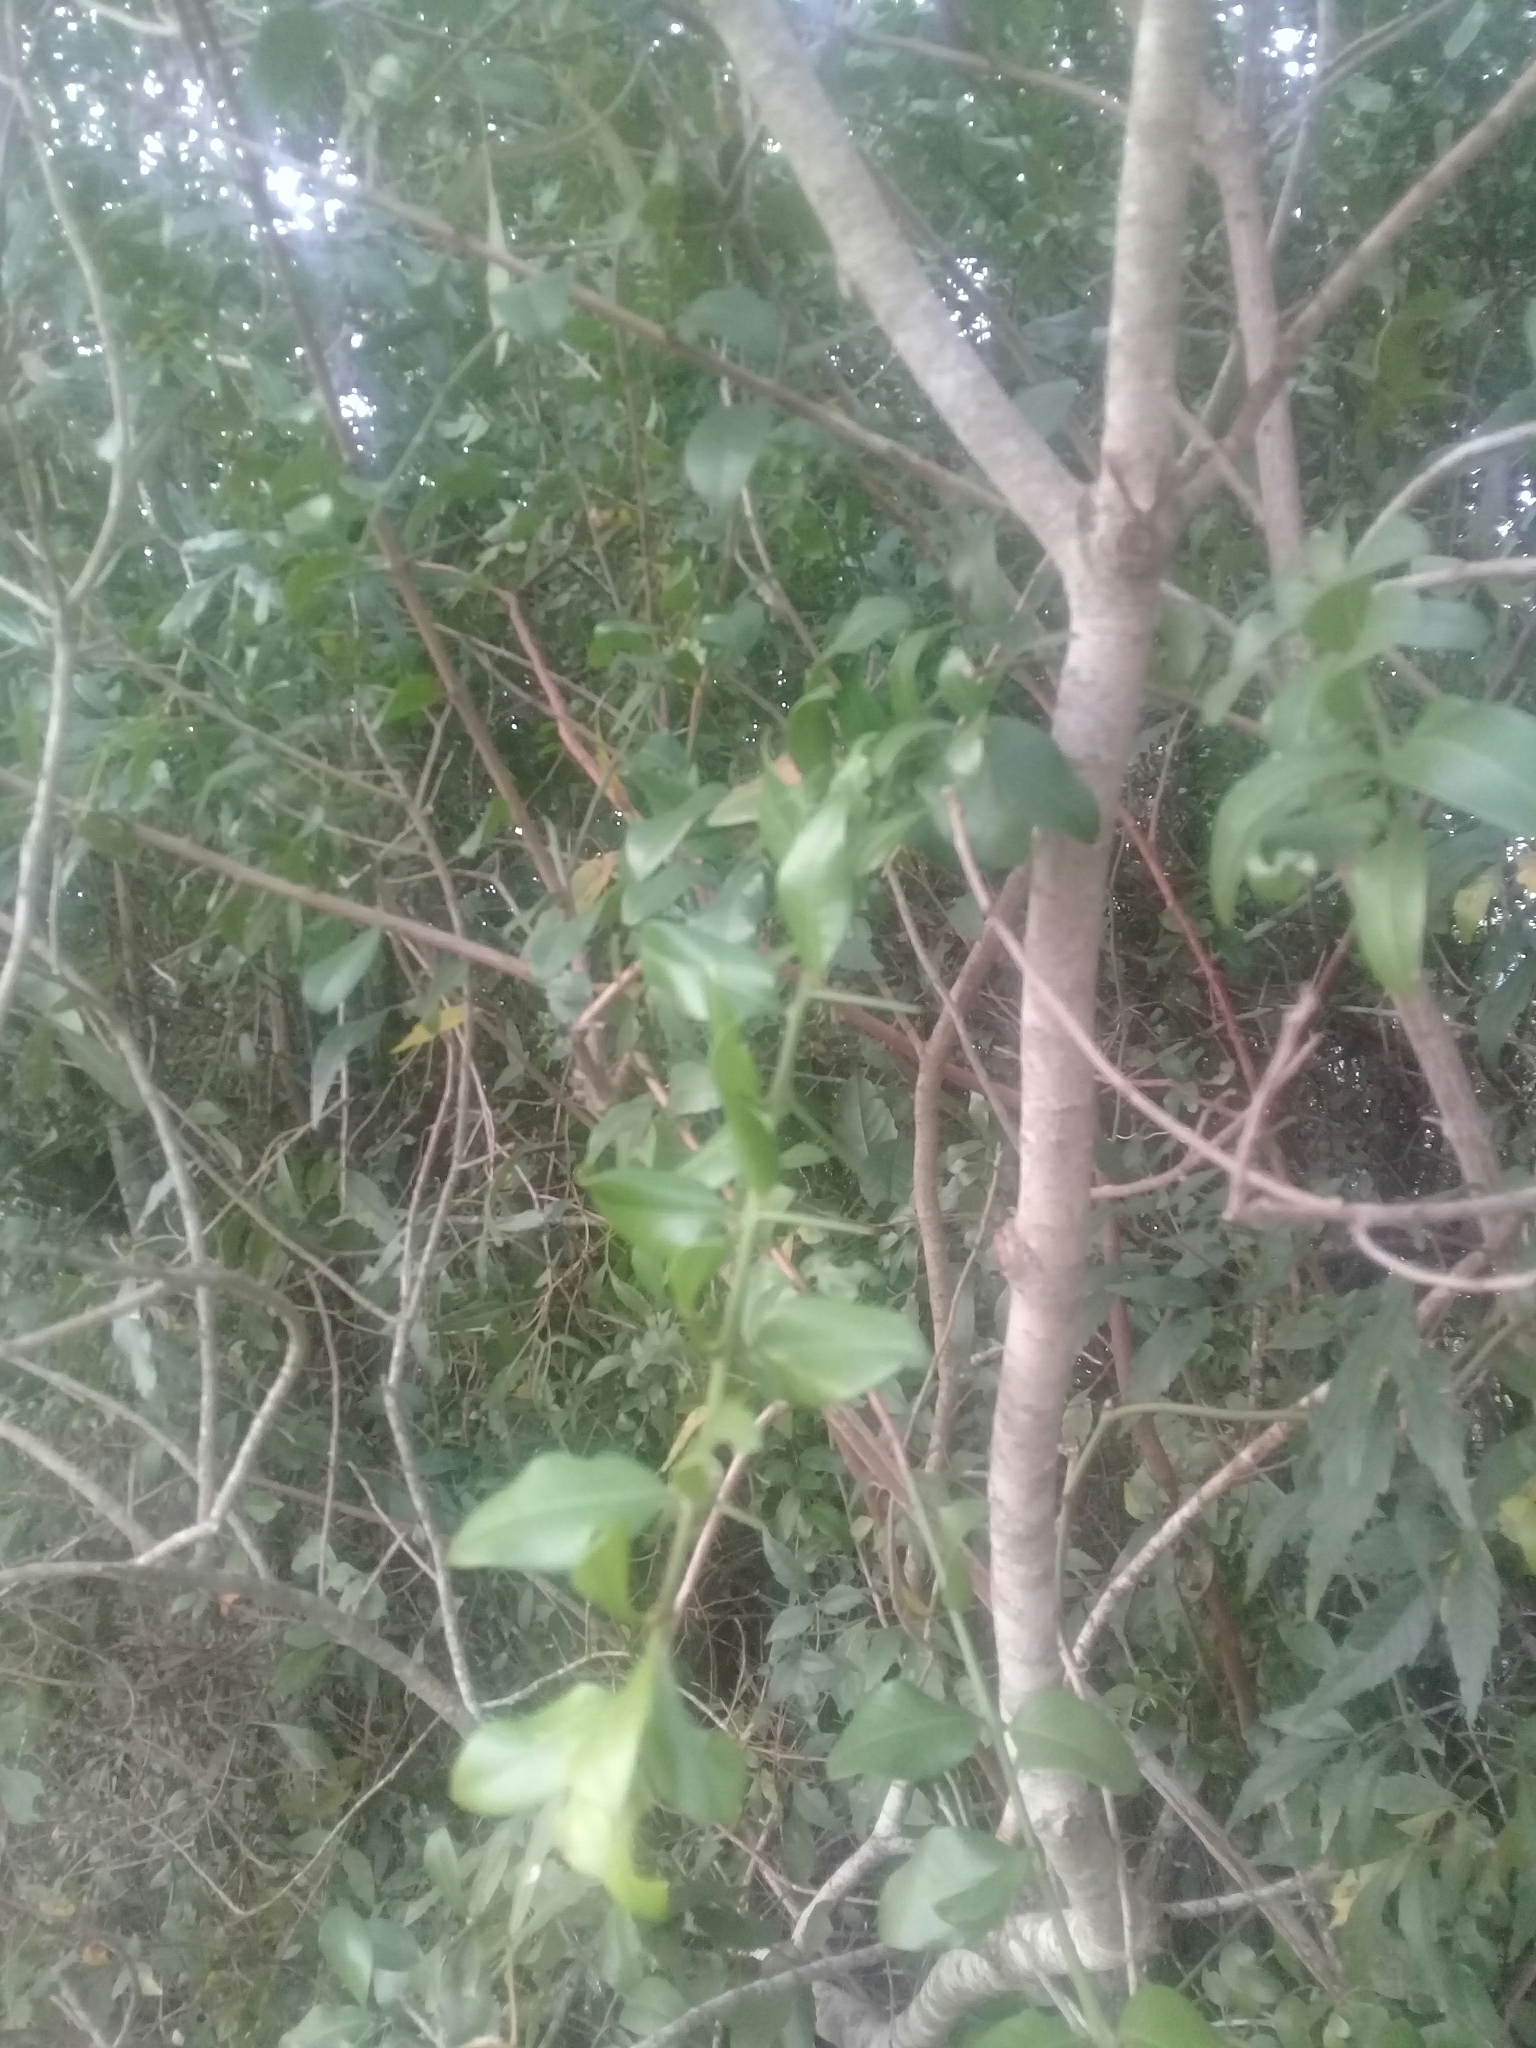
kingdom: Plantae
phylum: Tracheophyta
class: Magnoliopsida
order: Rosales
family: Rhamnaceae
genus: Scutia
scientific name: Scutia buxifolia
